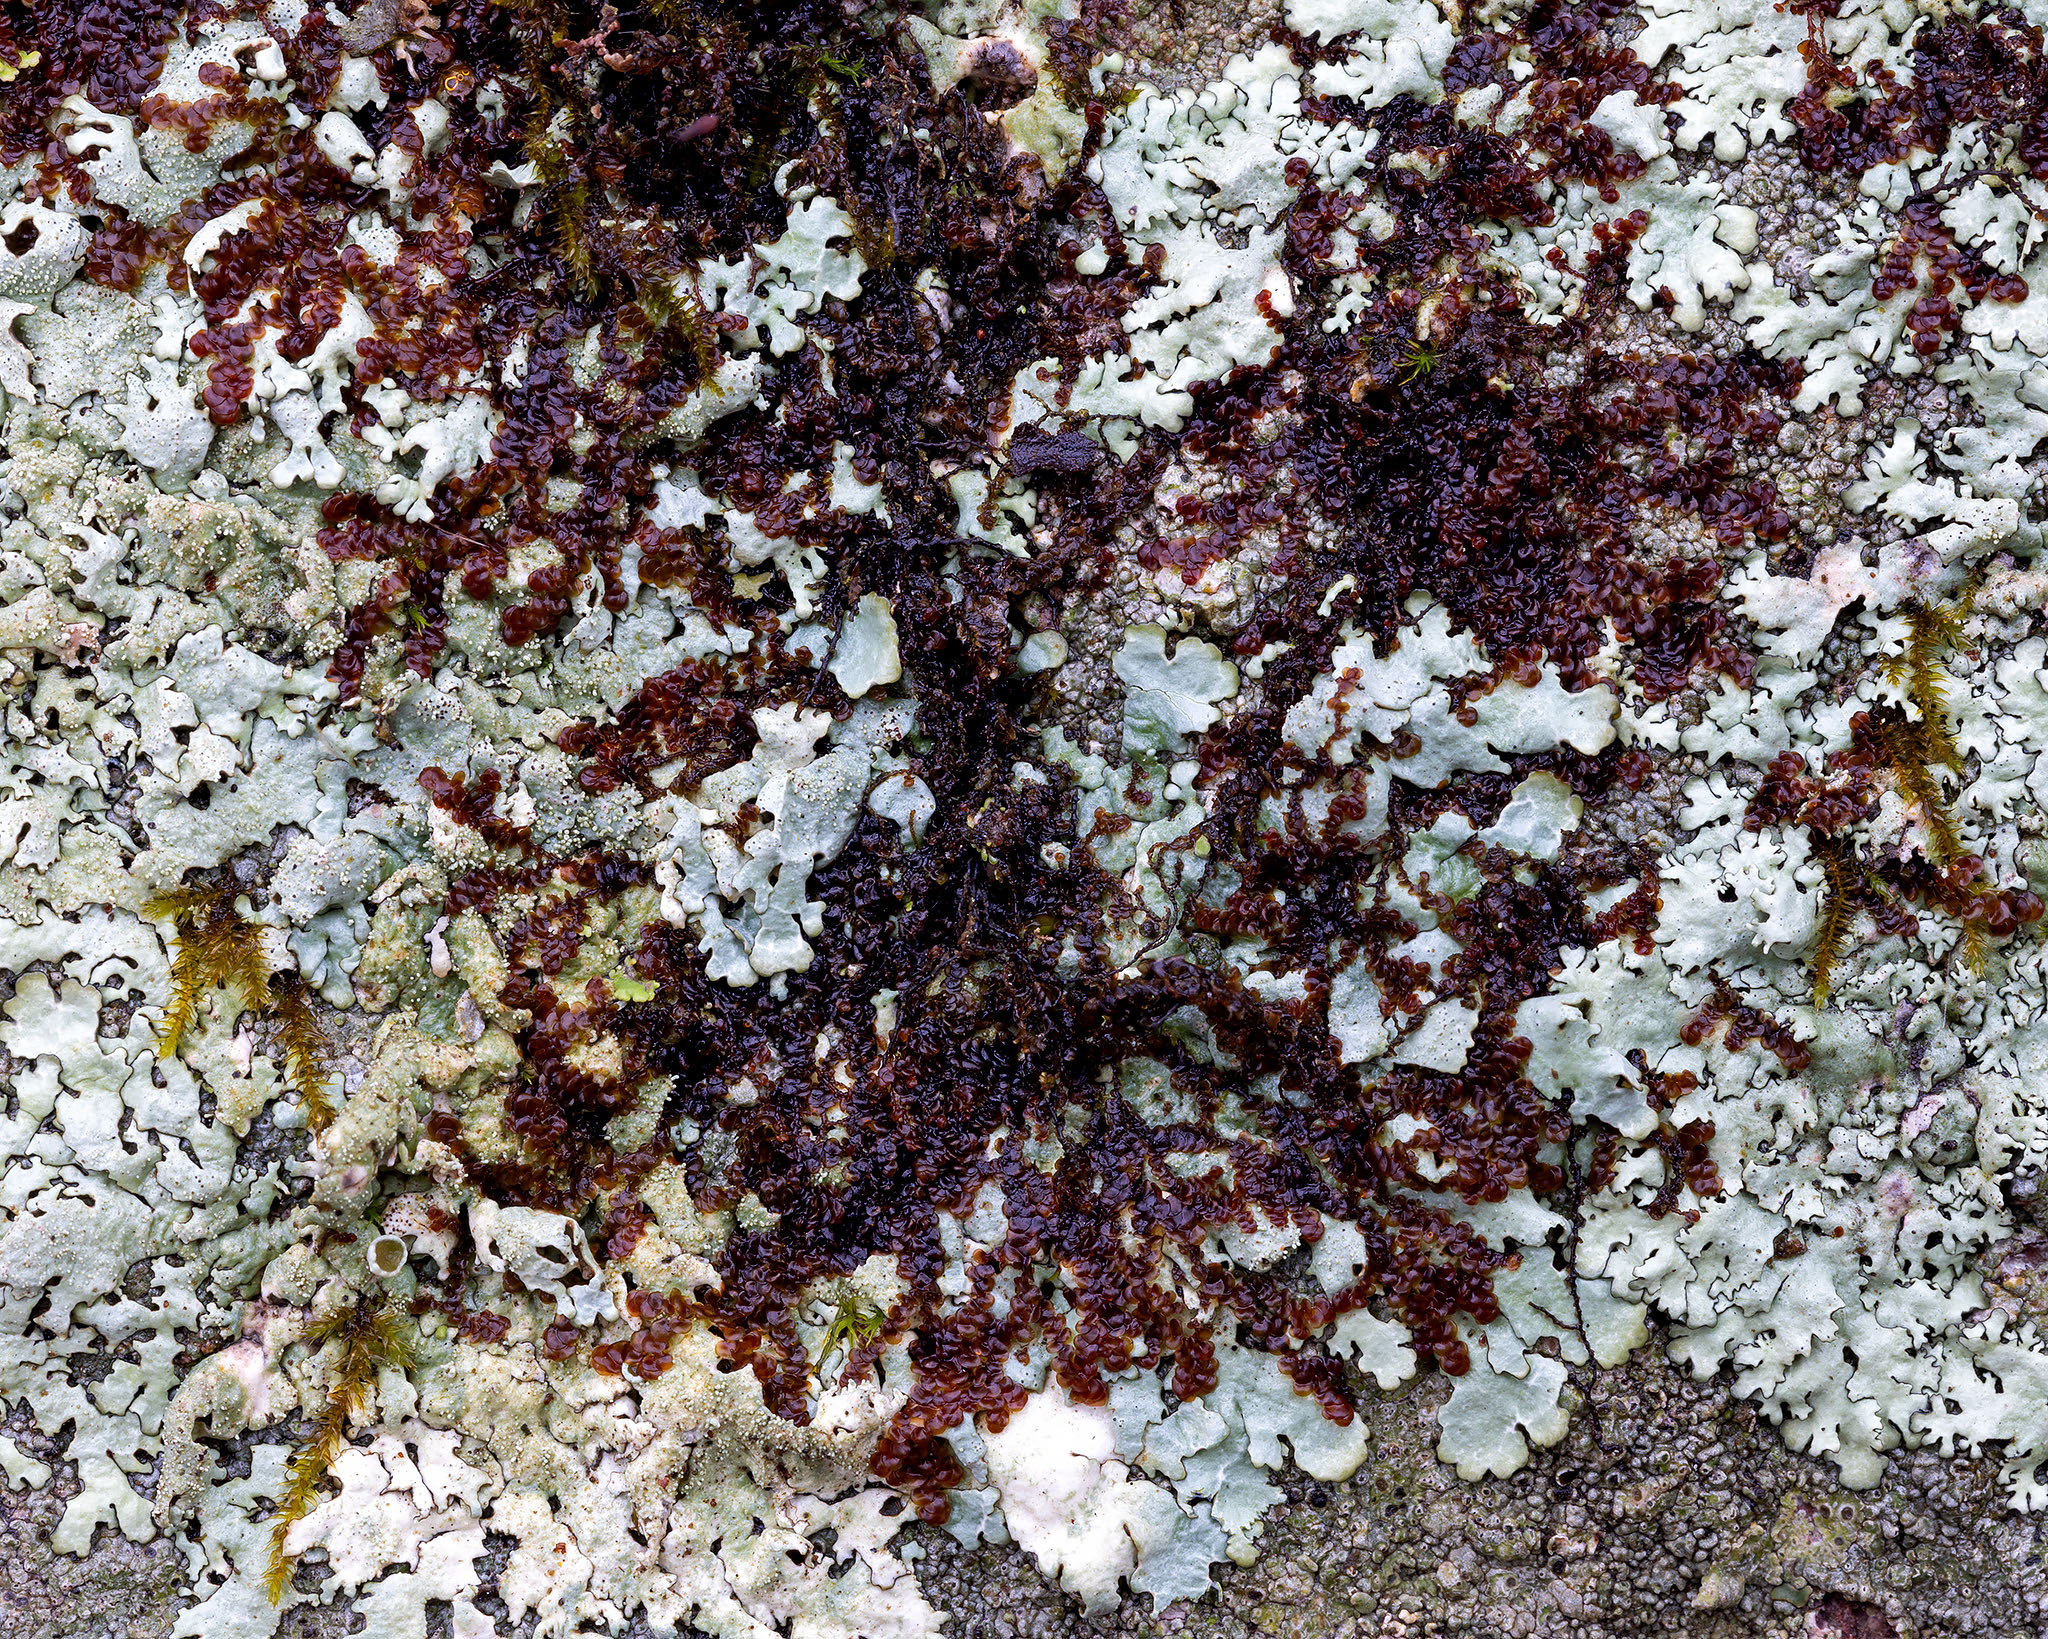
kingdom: Plantae
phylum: Marchantiophyta
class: Jungermanniopsida
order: Porellales
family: Frullaniaceae
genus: Frullania
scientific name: Frullania asagrayana
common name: Asa gray s scalewort
